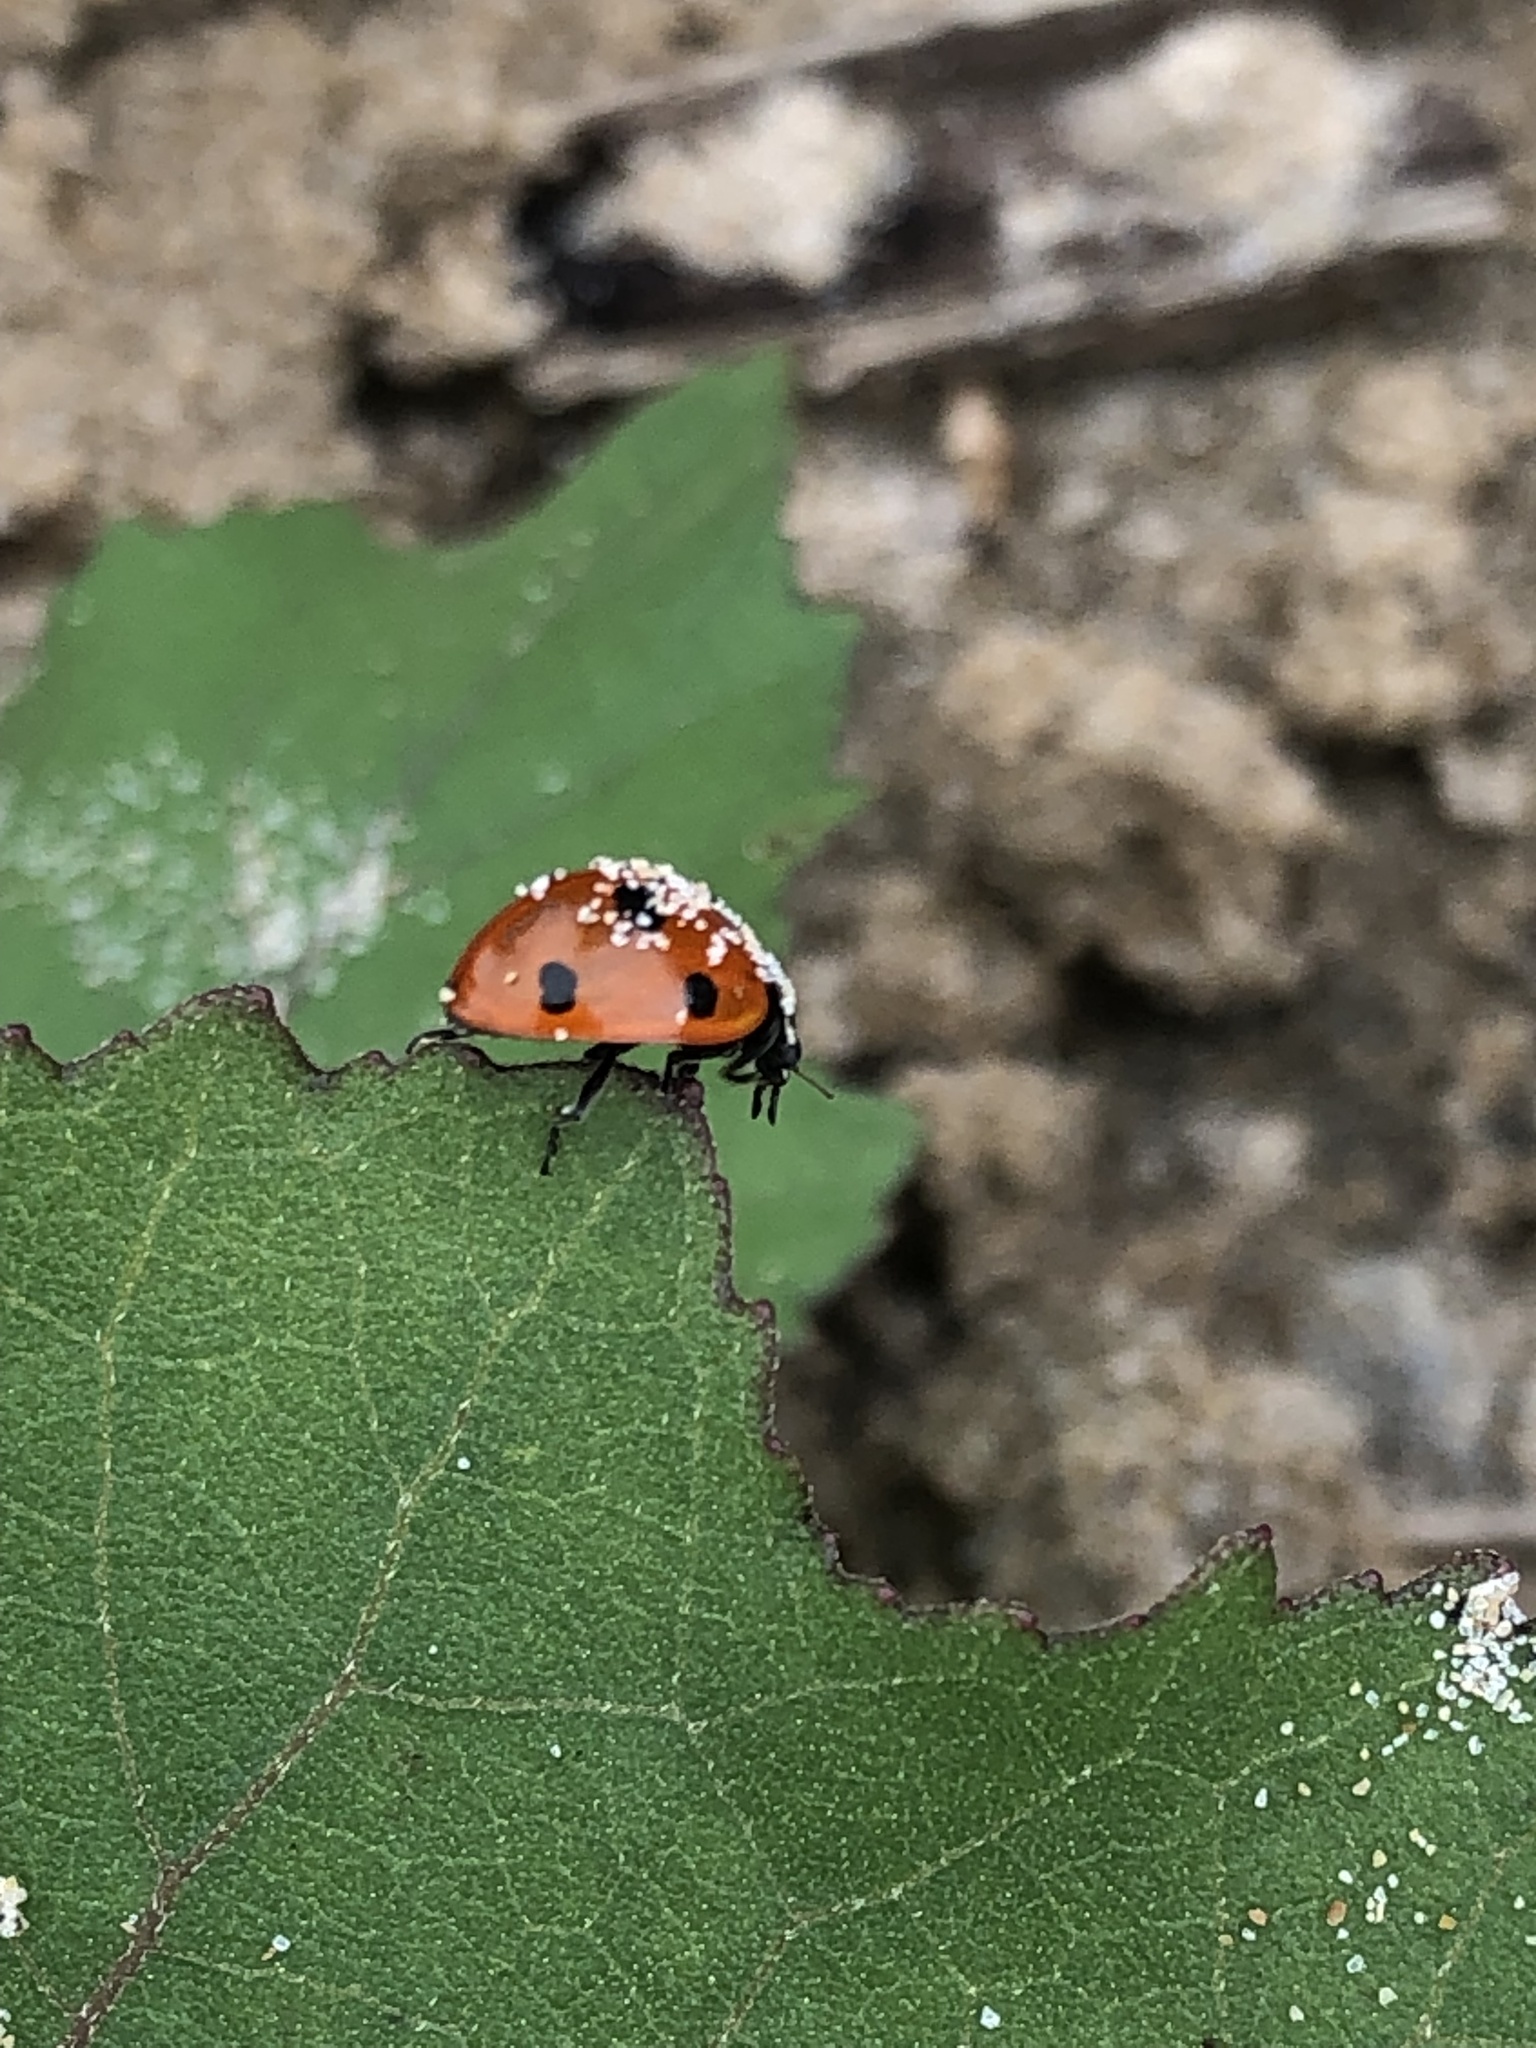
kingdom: Animalia
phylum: Arthropoda
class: Insecta
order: Coleoptera
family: Coccinellidae
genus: Coccinella
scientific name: Coccinella septempunctata
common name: Sevenspotted lady beetle
